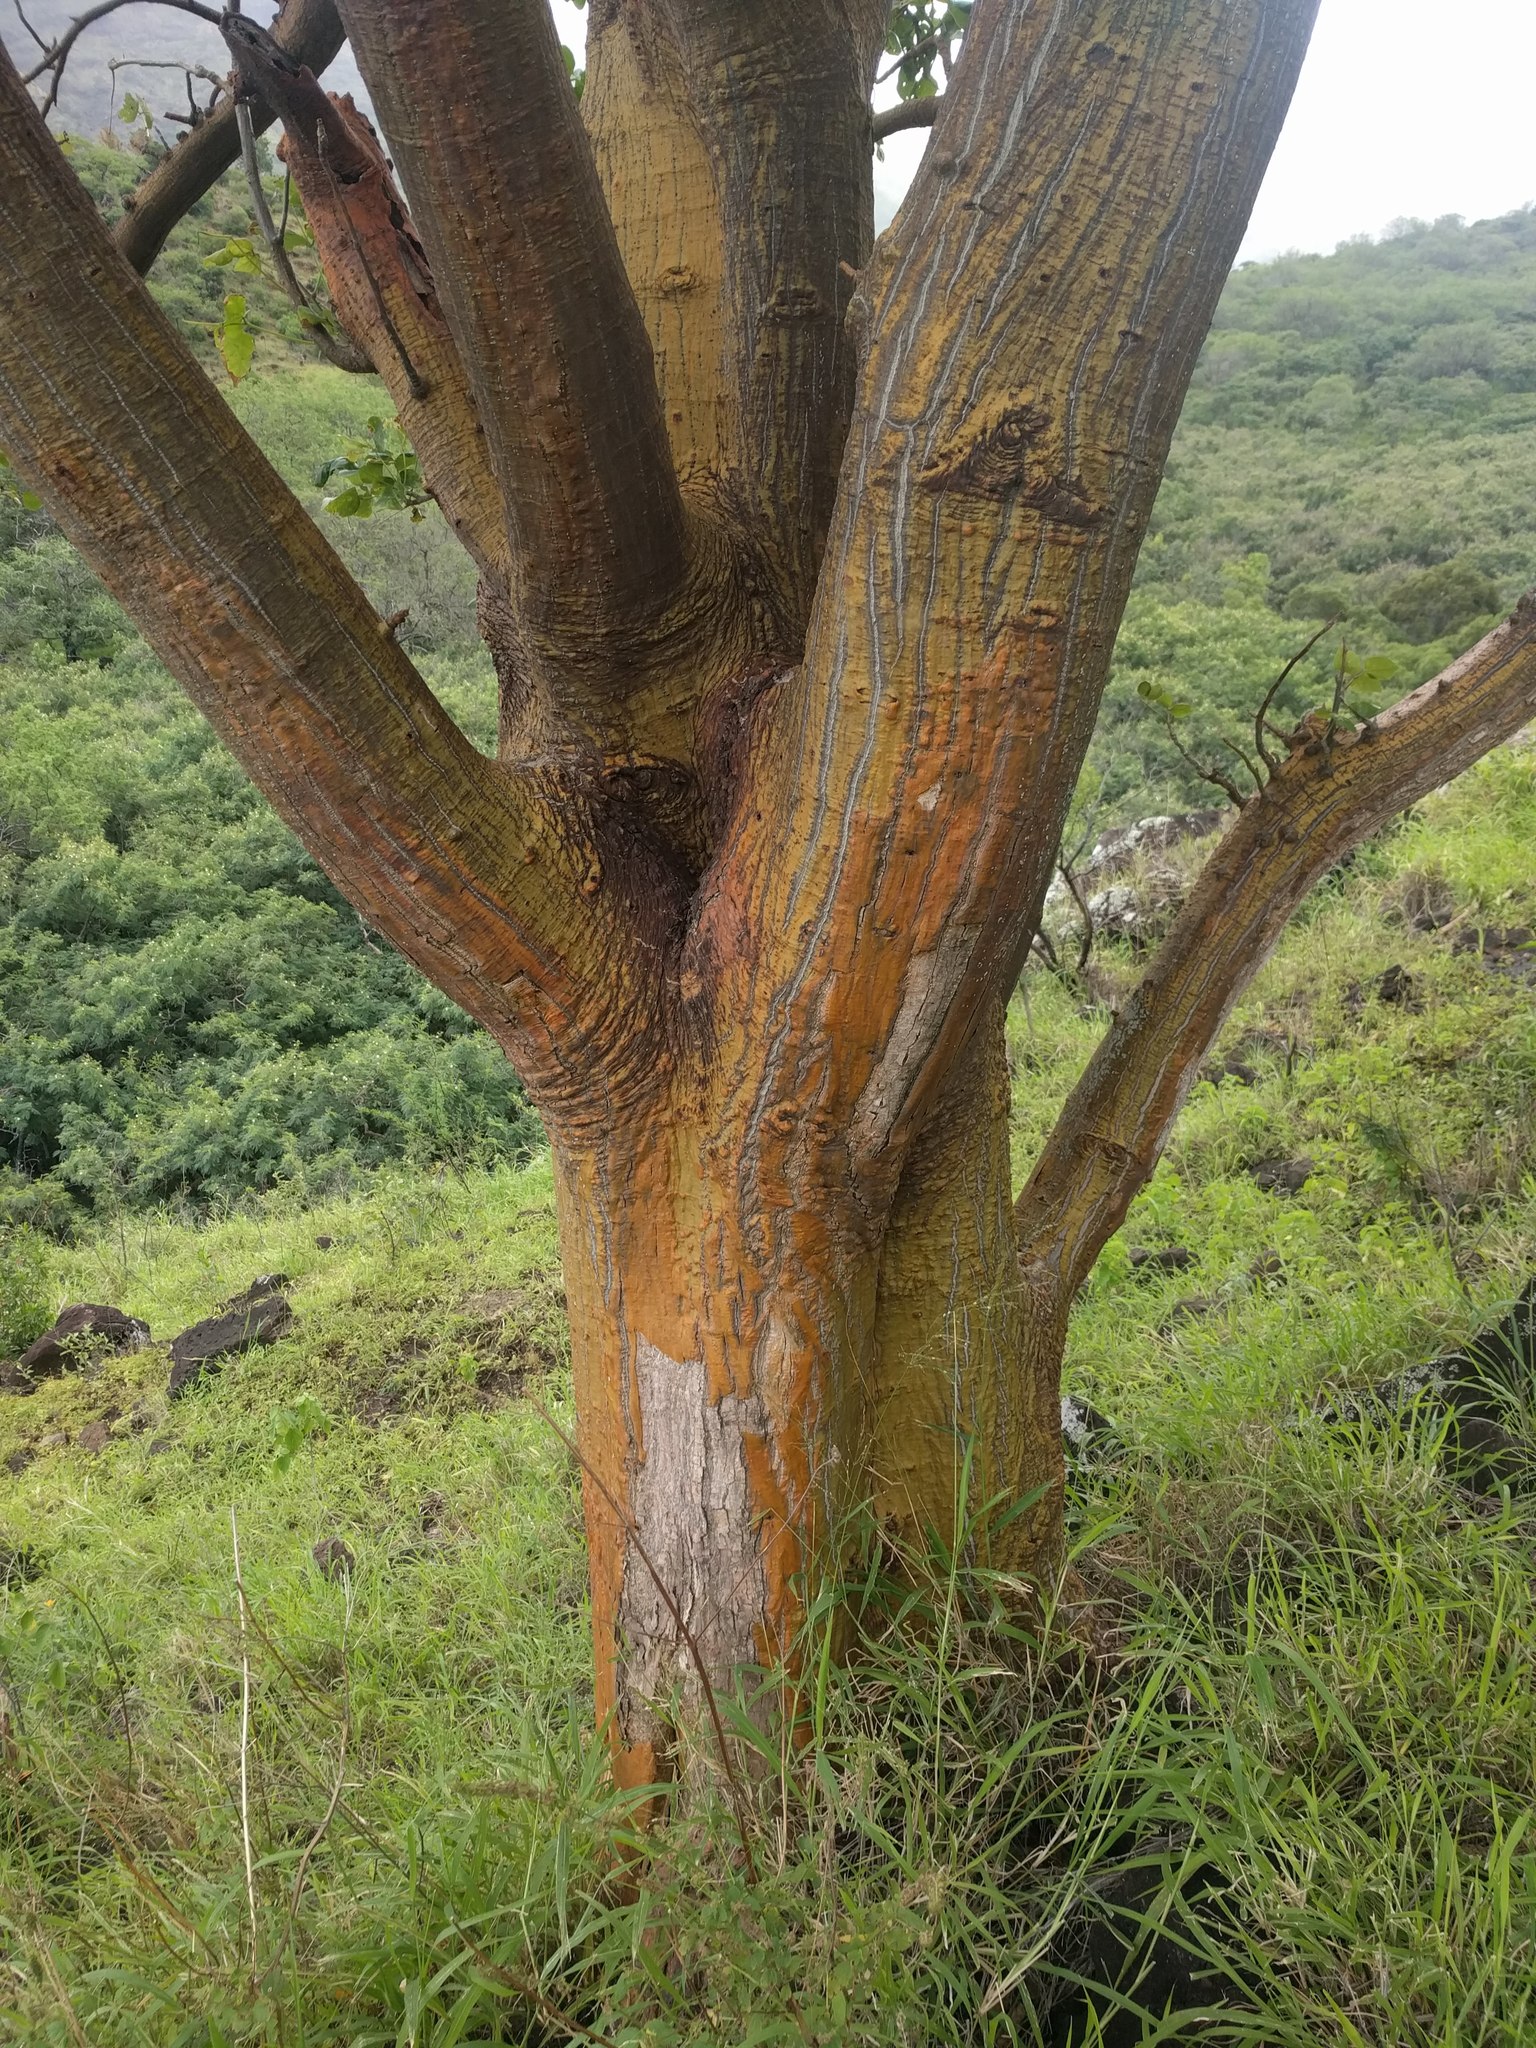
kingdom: Plantae
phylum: Tracheophyta
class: Magnoliopsida
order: Fabales
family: Fabaceae
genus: Erythrina
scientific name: Erythrina sandwicensis
